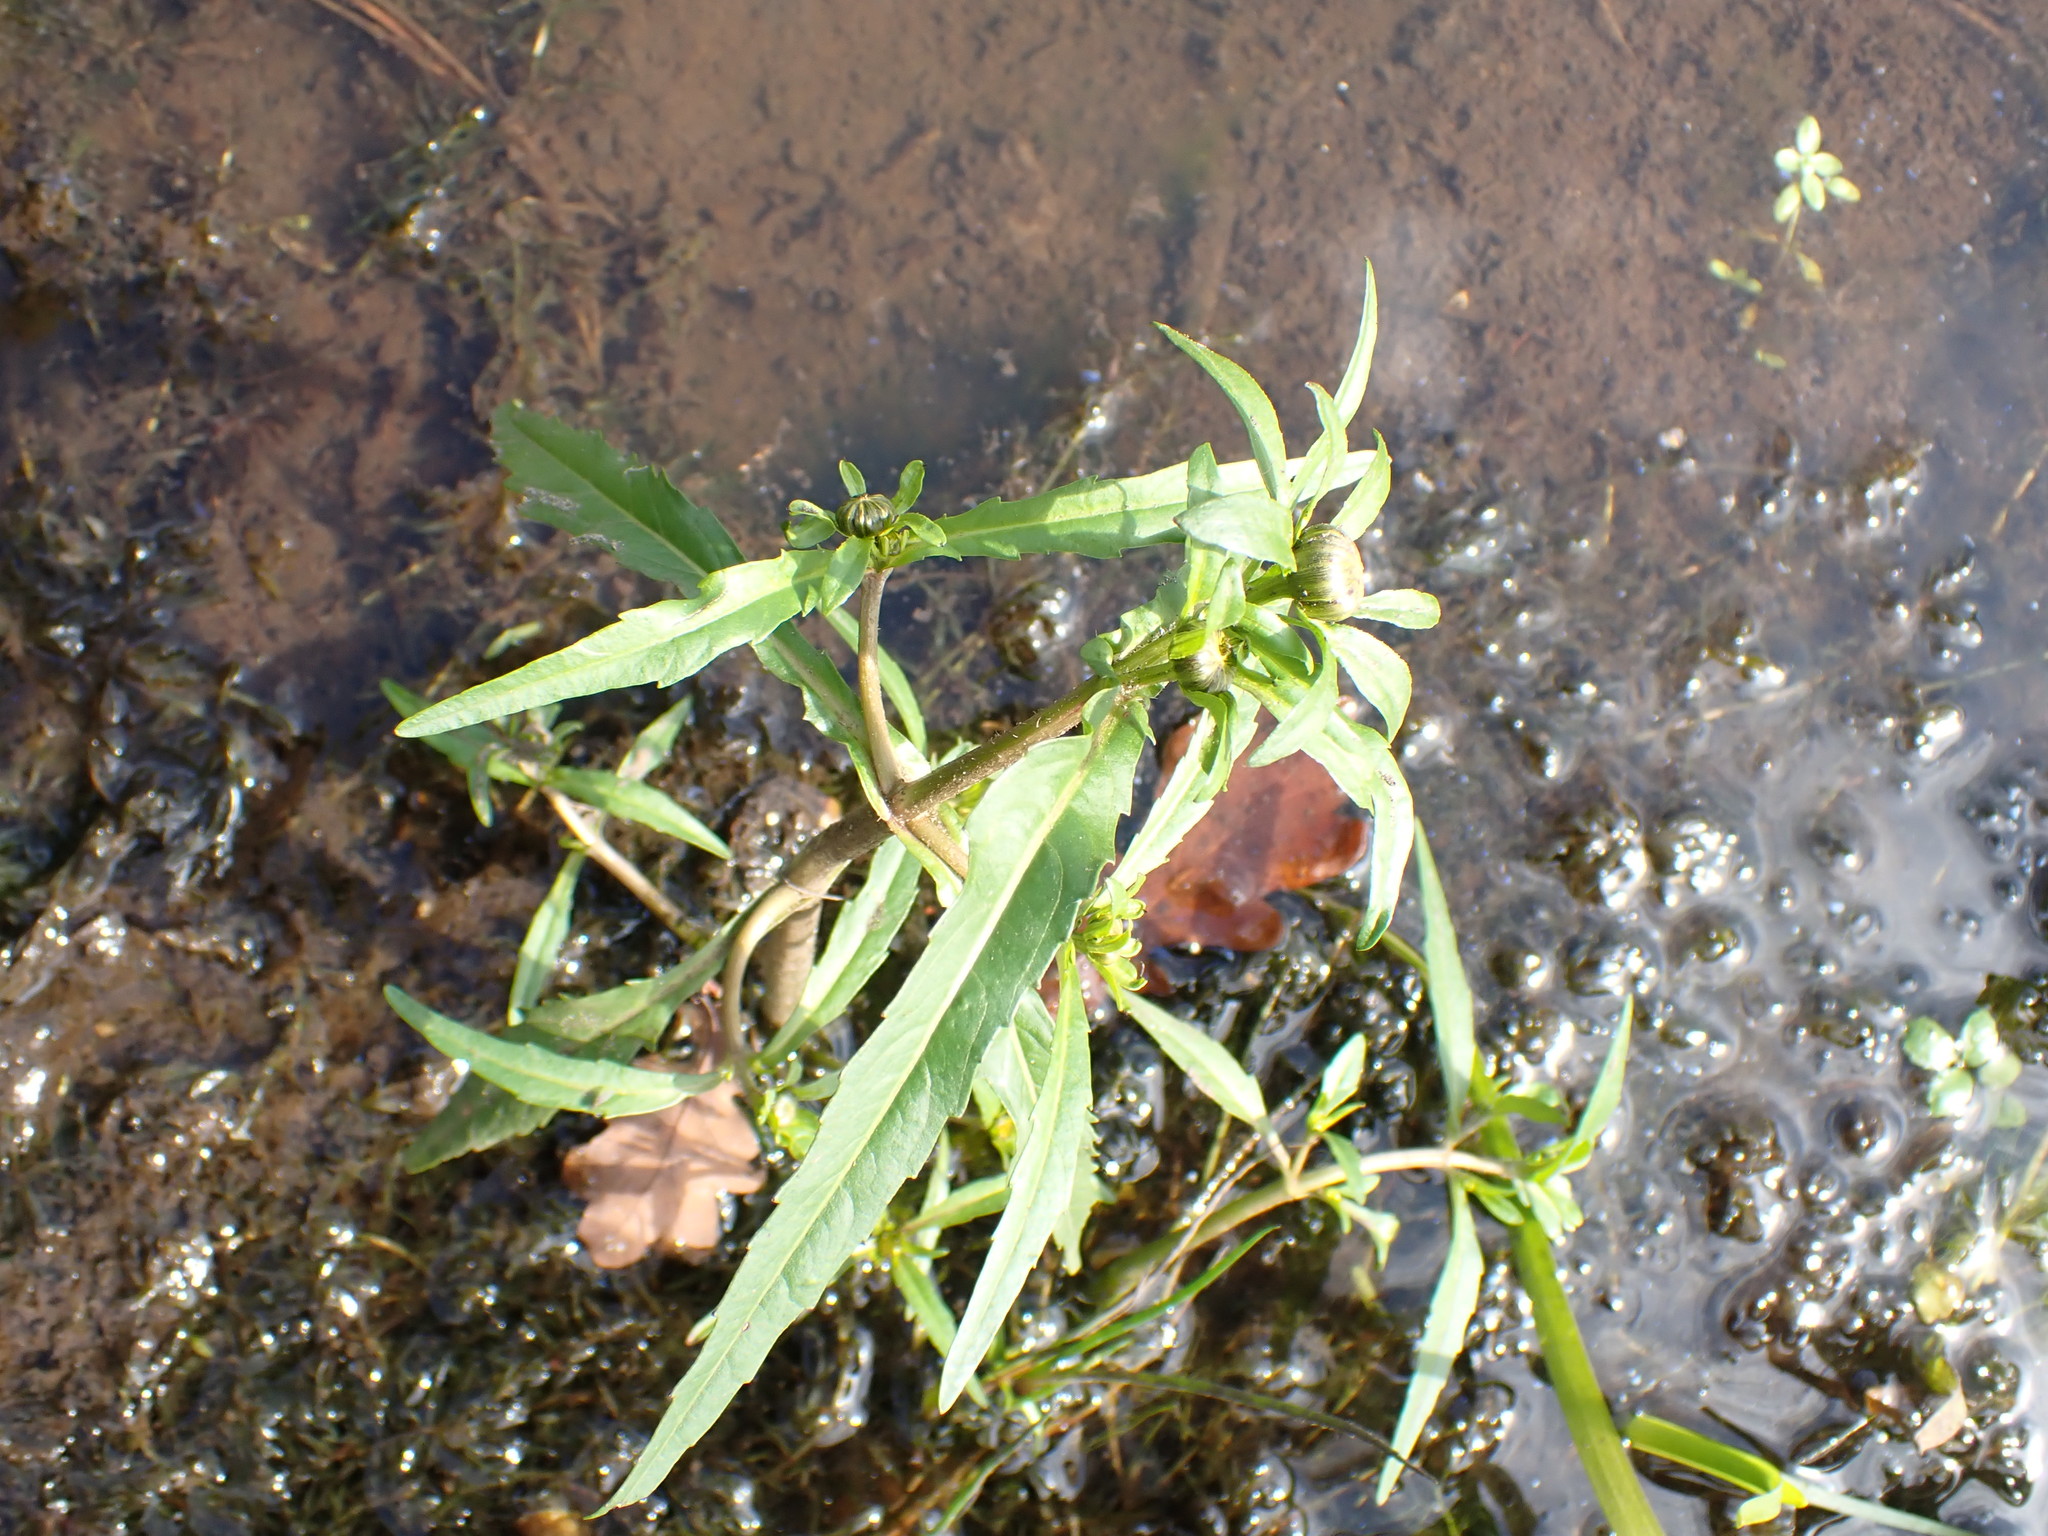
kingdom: Plantae
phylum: Tracheophyta
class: Magnoliopsida
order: Asterales
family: Asteraceae
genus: Bidens
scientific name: Bidens cernua
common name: Nodding bur-marigold
